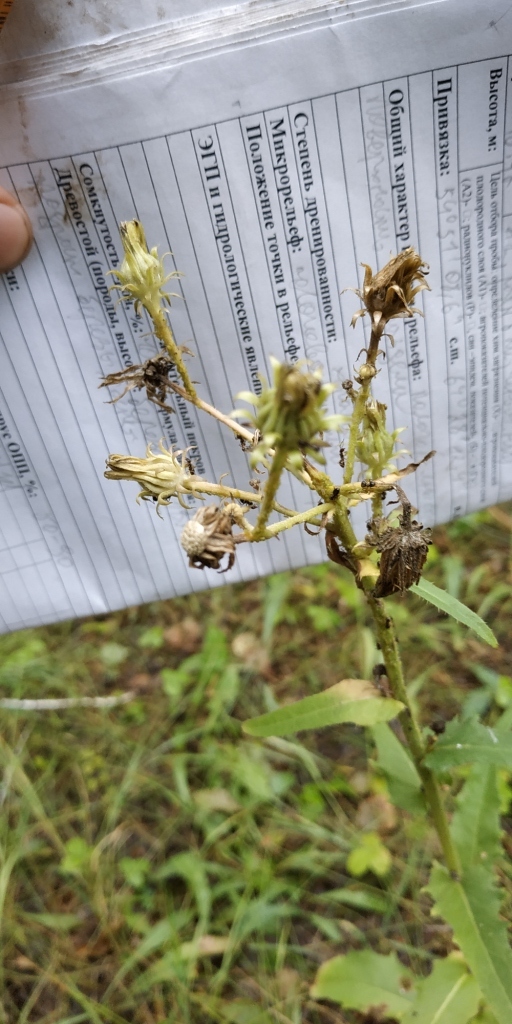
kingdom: Plantae
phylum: Tracheophyta
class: Magnoliopsida
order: Asterales
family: Asteraceae
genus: Picris
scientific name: Picris hieracioides
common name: Hawkweed oxtongue
